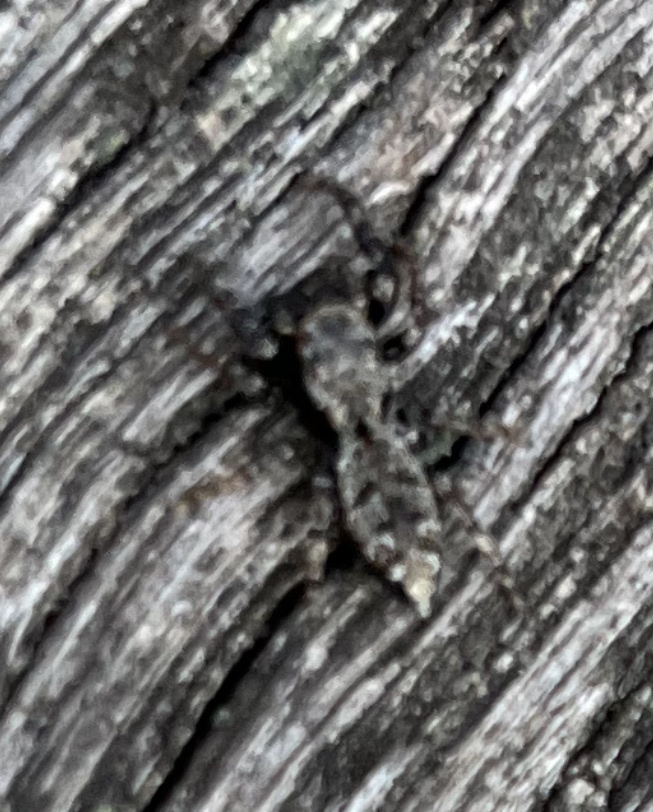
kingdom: Animalia
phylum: Arthropoda
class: Arachnida
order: Araneae
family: Salticidae
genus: Marpissa
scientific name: Marpissa muscosa
